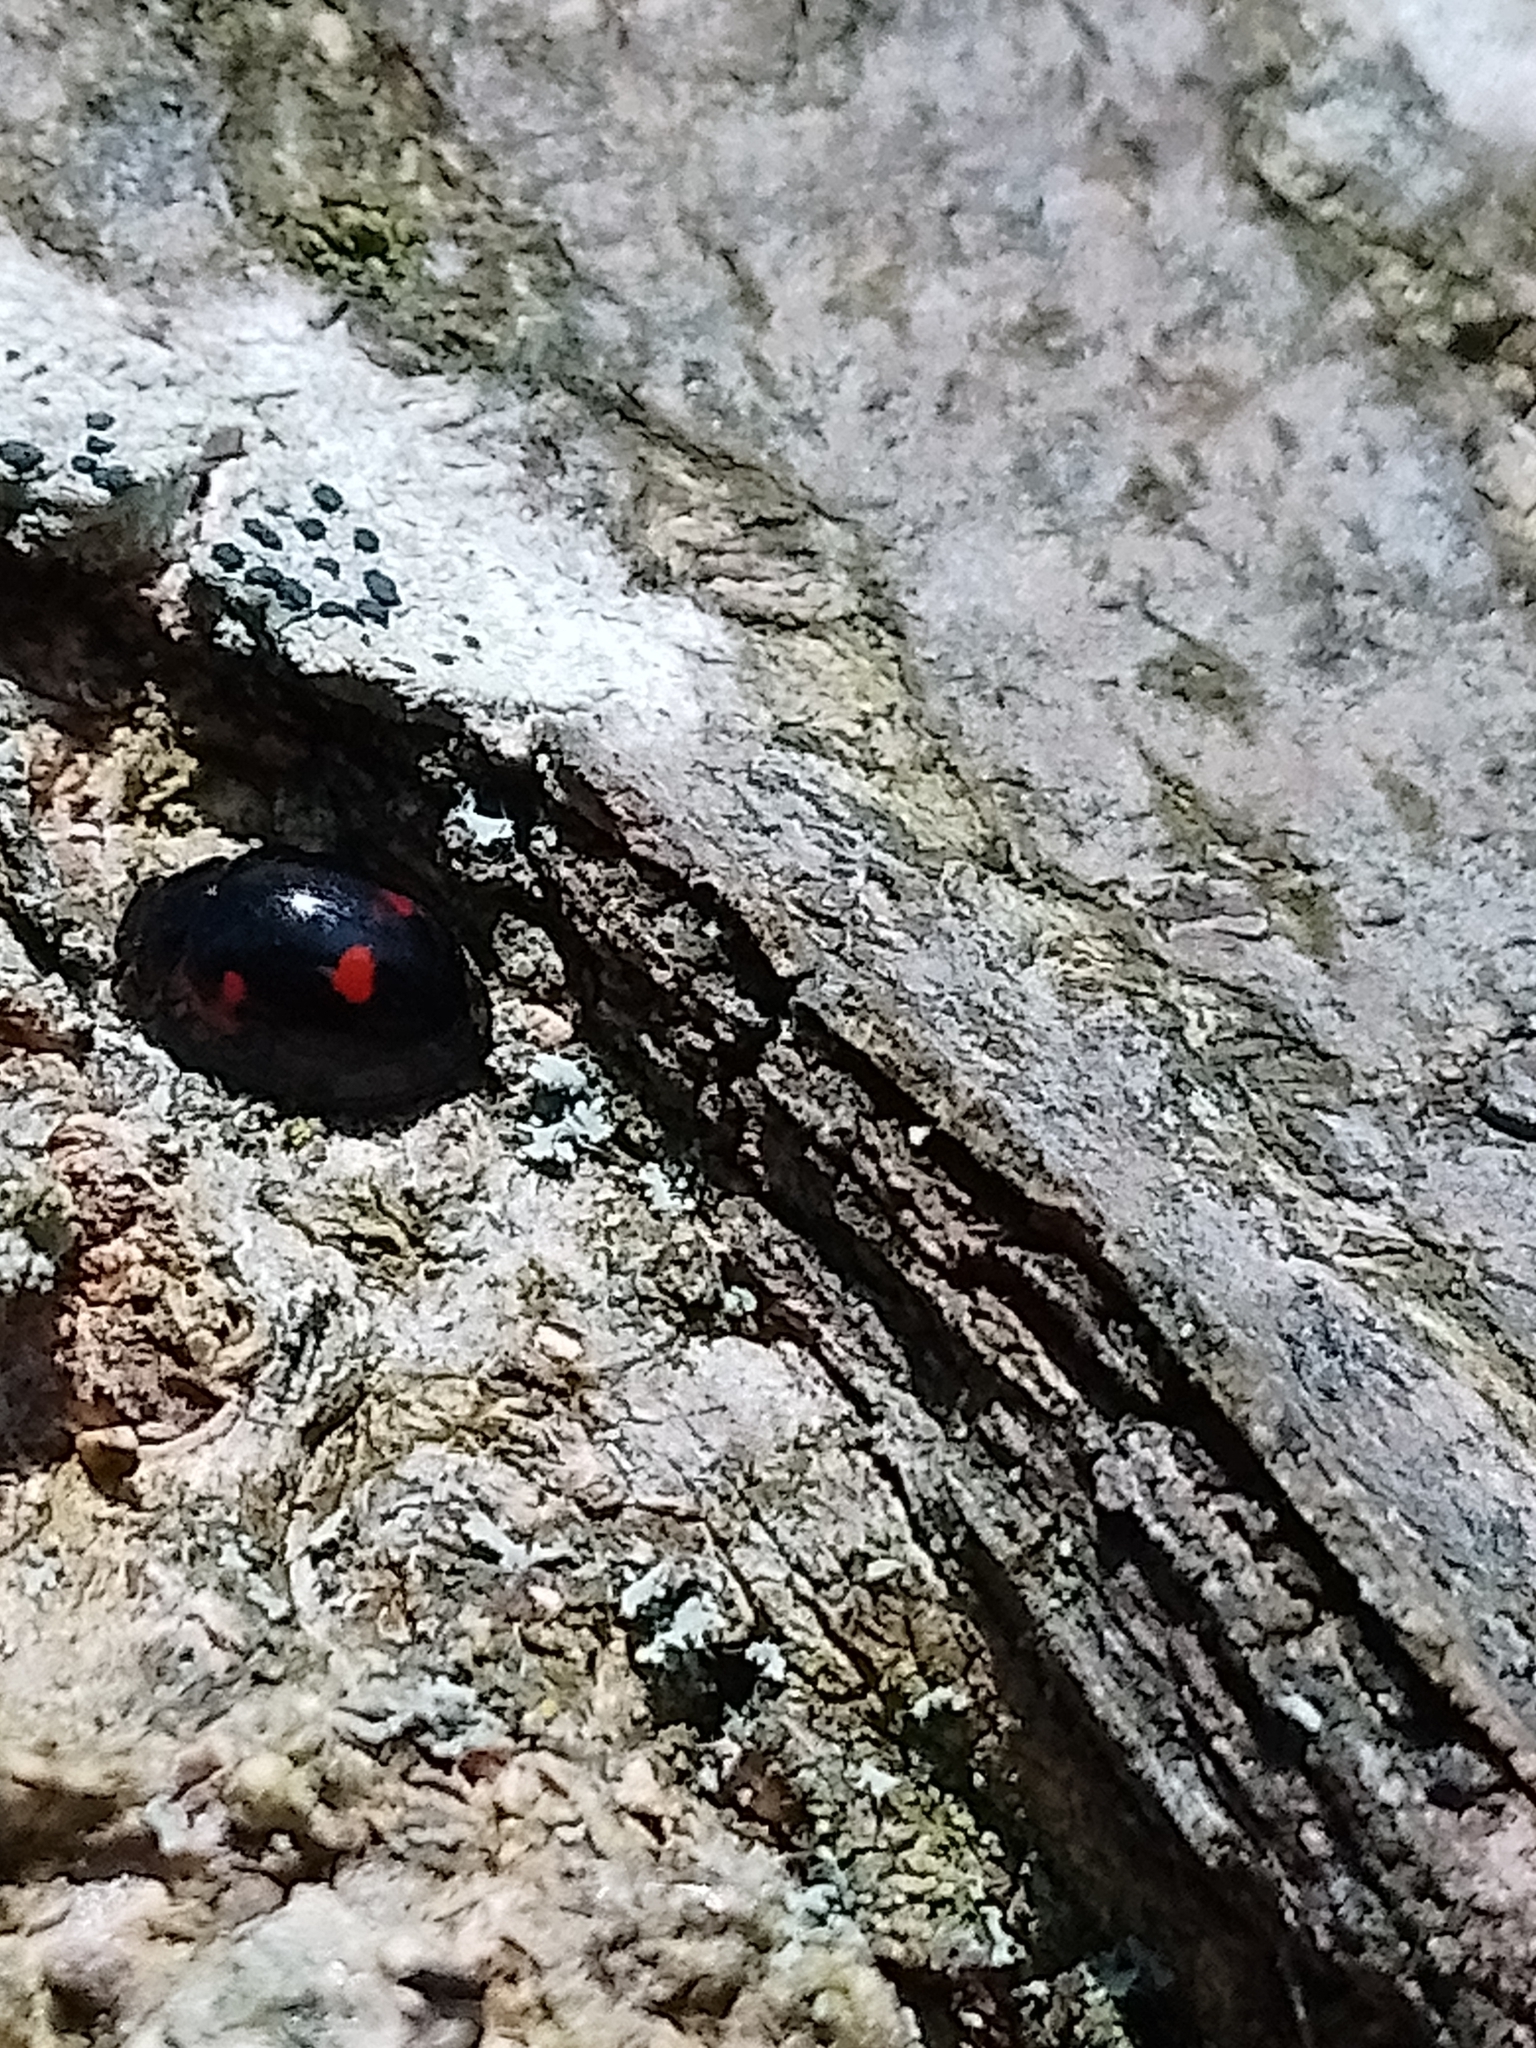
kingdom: Animalia
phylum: Arthropoda
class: Insecta
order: Coleoptera
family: Coccinellidae
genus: Brumus
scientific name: Brumus quadripustulatus
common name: Ladybird beetle
